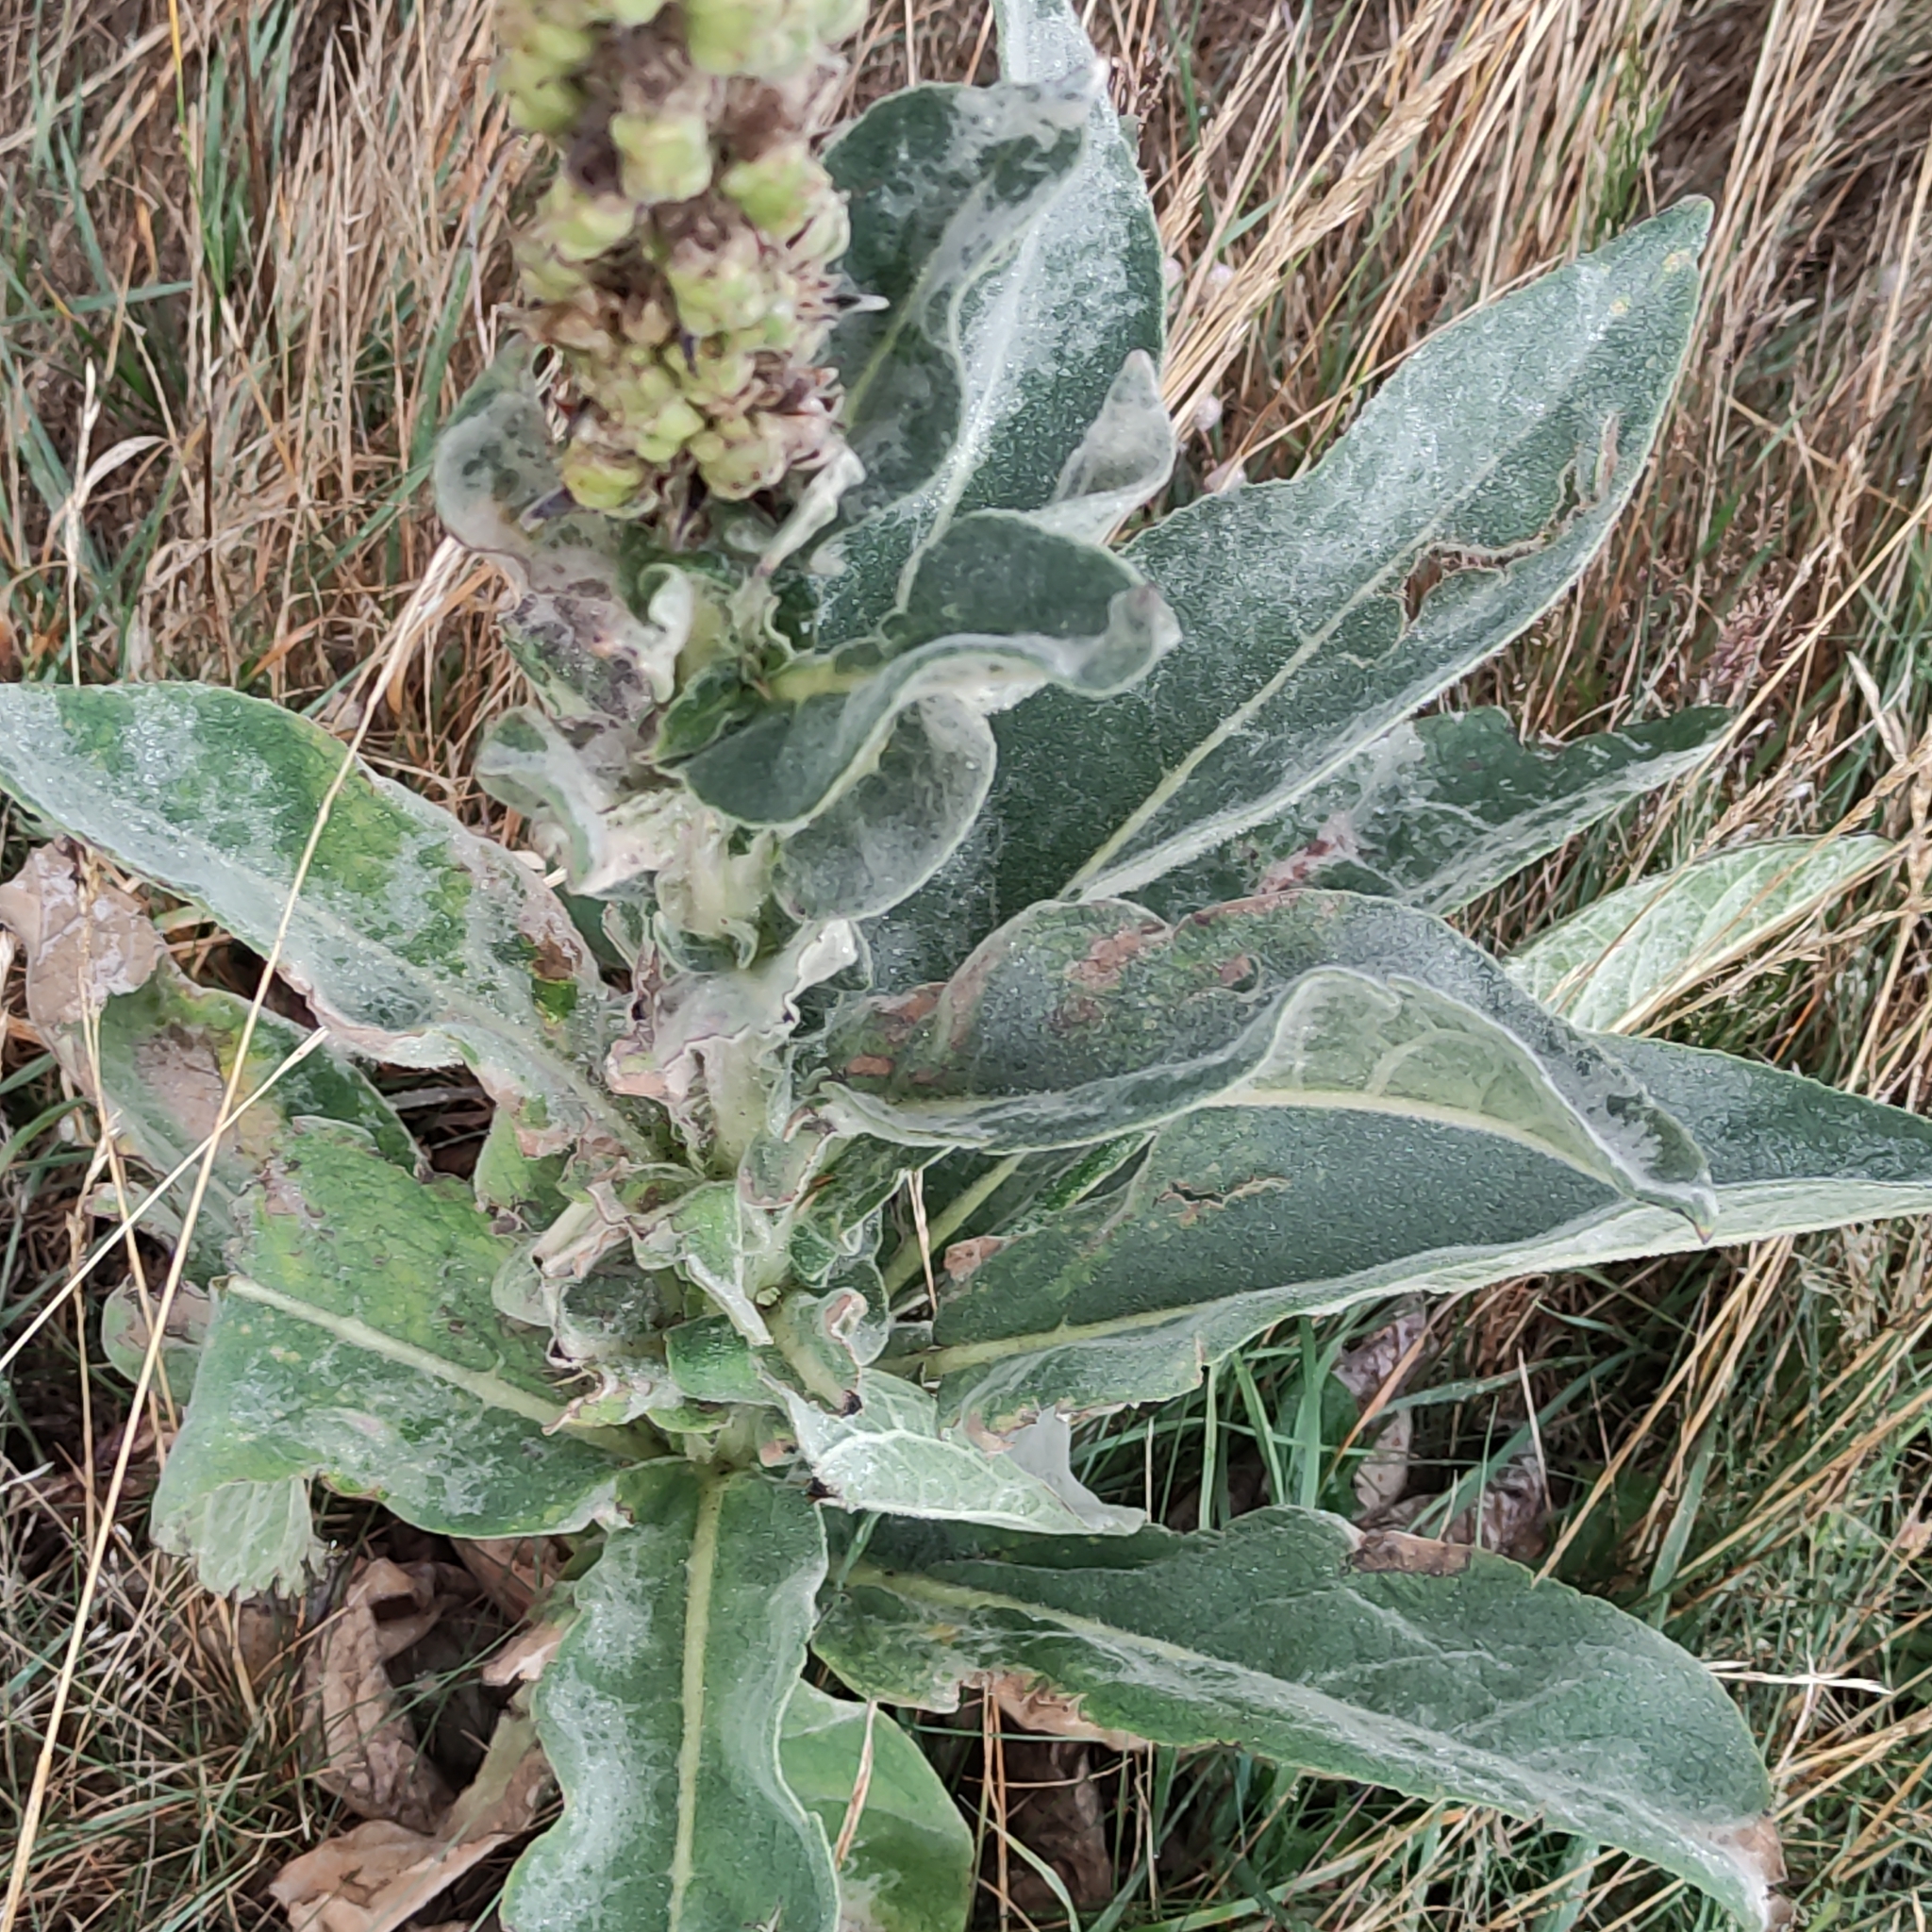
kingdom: Plantae
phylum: Tracheophyta
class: Magnoliopsida
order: Lamiales
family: Scrophulariaceae
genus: Verbascum
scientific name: Verbascum thapsus
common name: Common mullein
